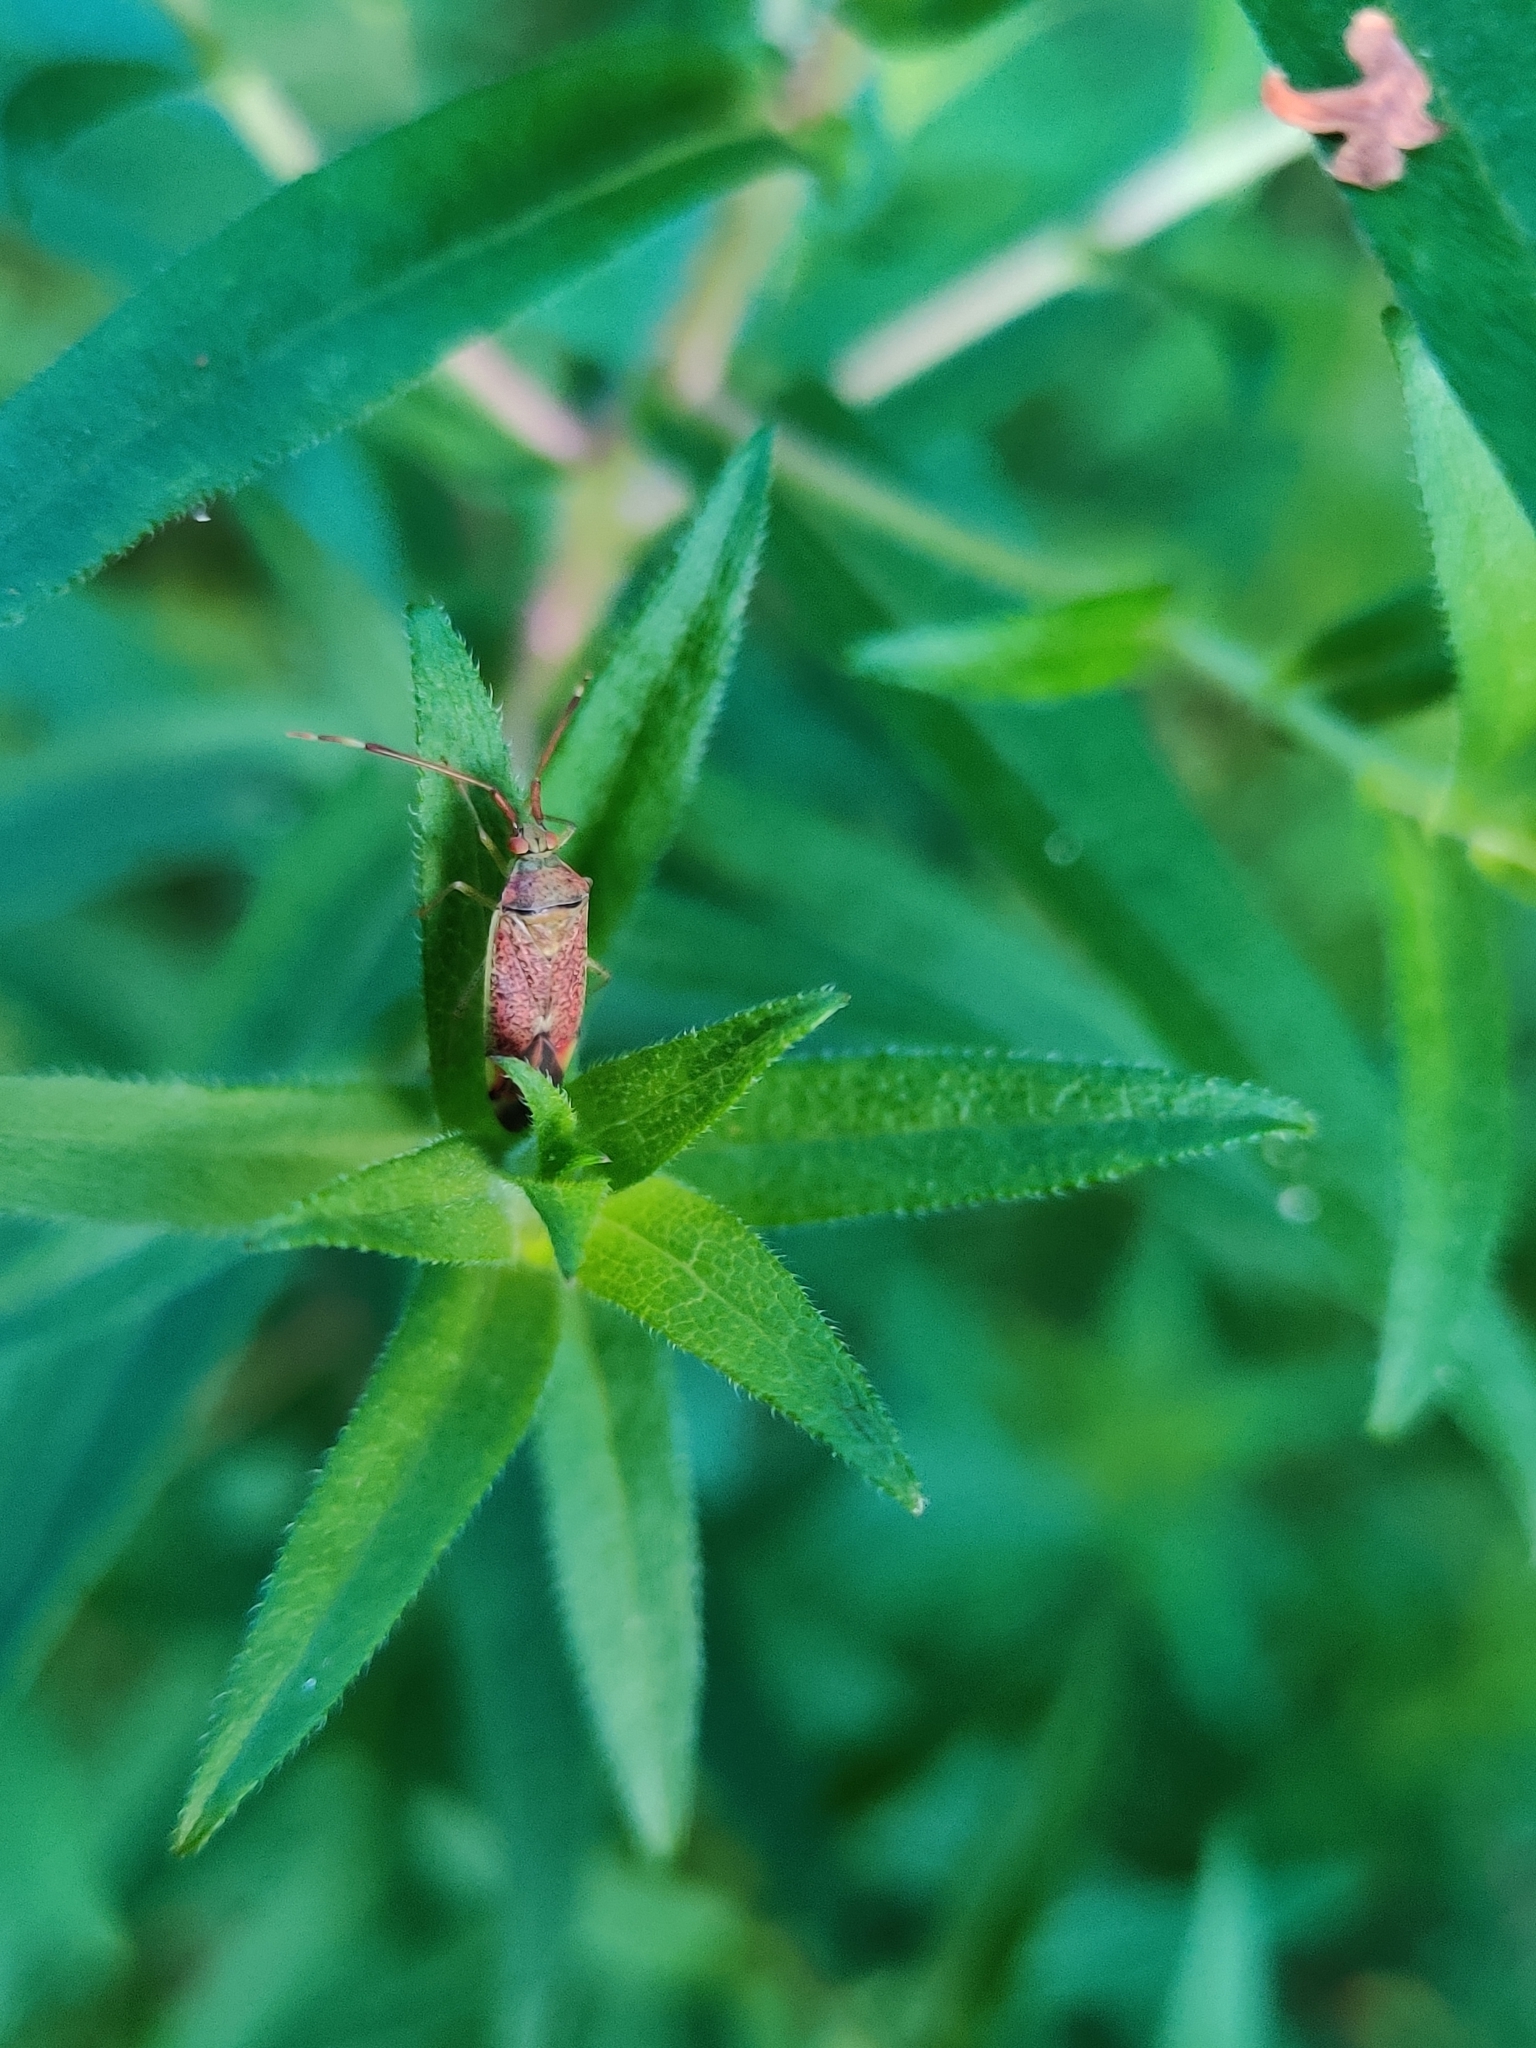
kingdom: Animalia
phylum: Arthropoda
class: Insecta
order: Hemiptera
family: Miridae
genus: Pantilius
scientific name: Pantilius tunicatus
